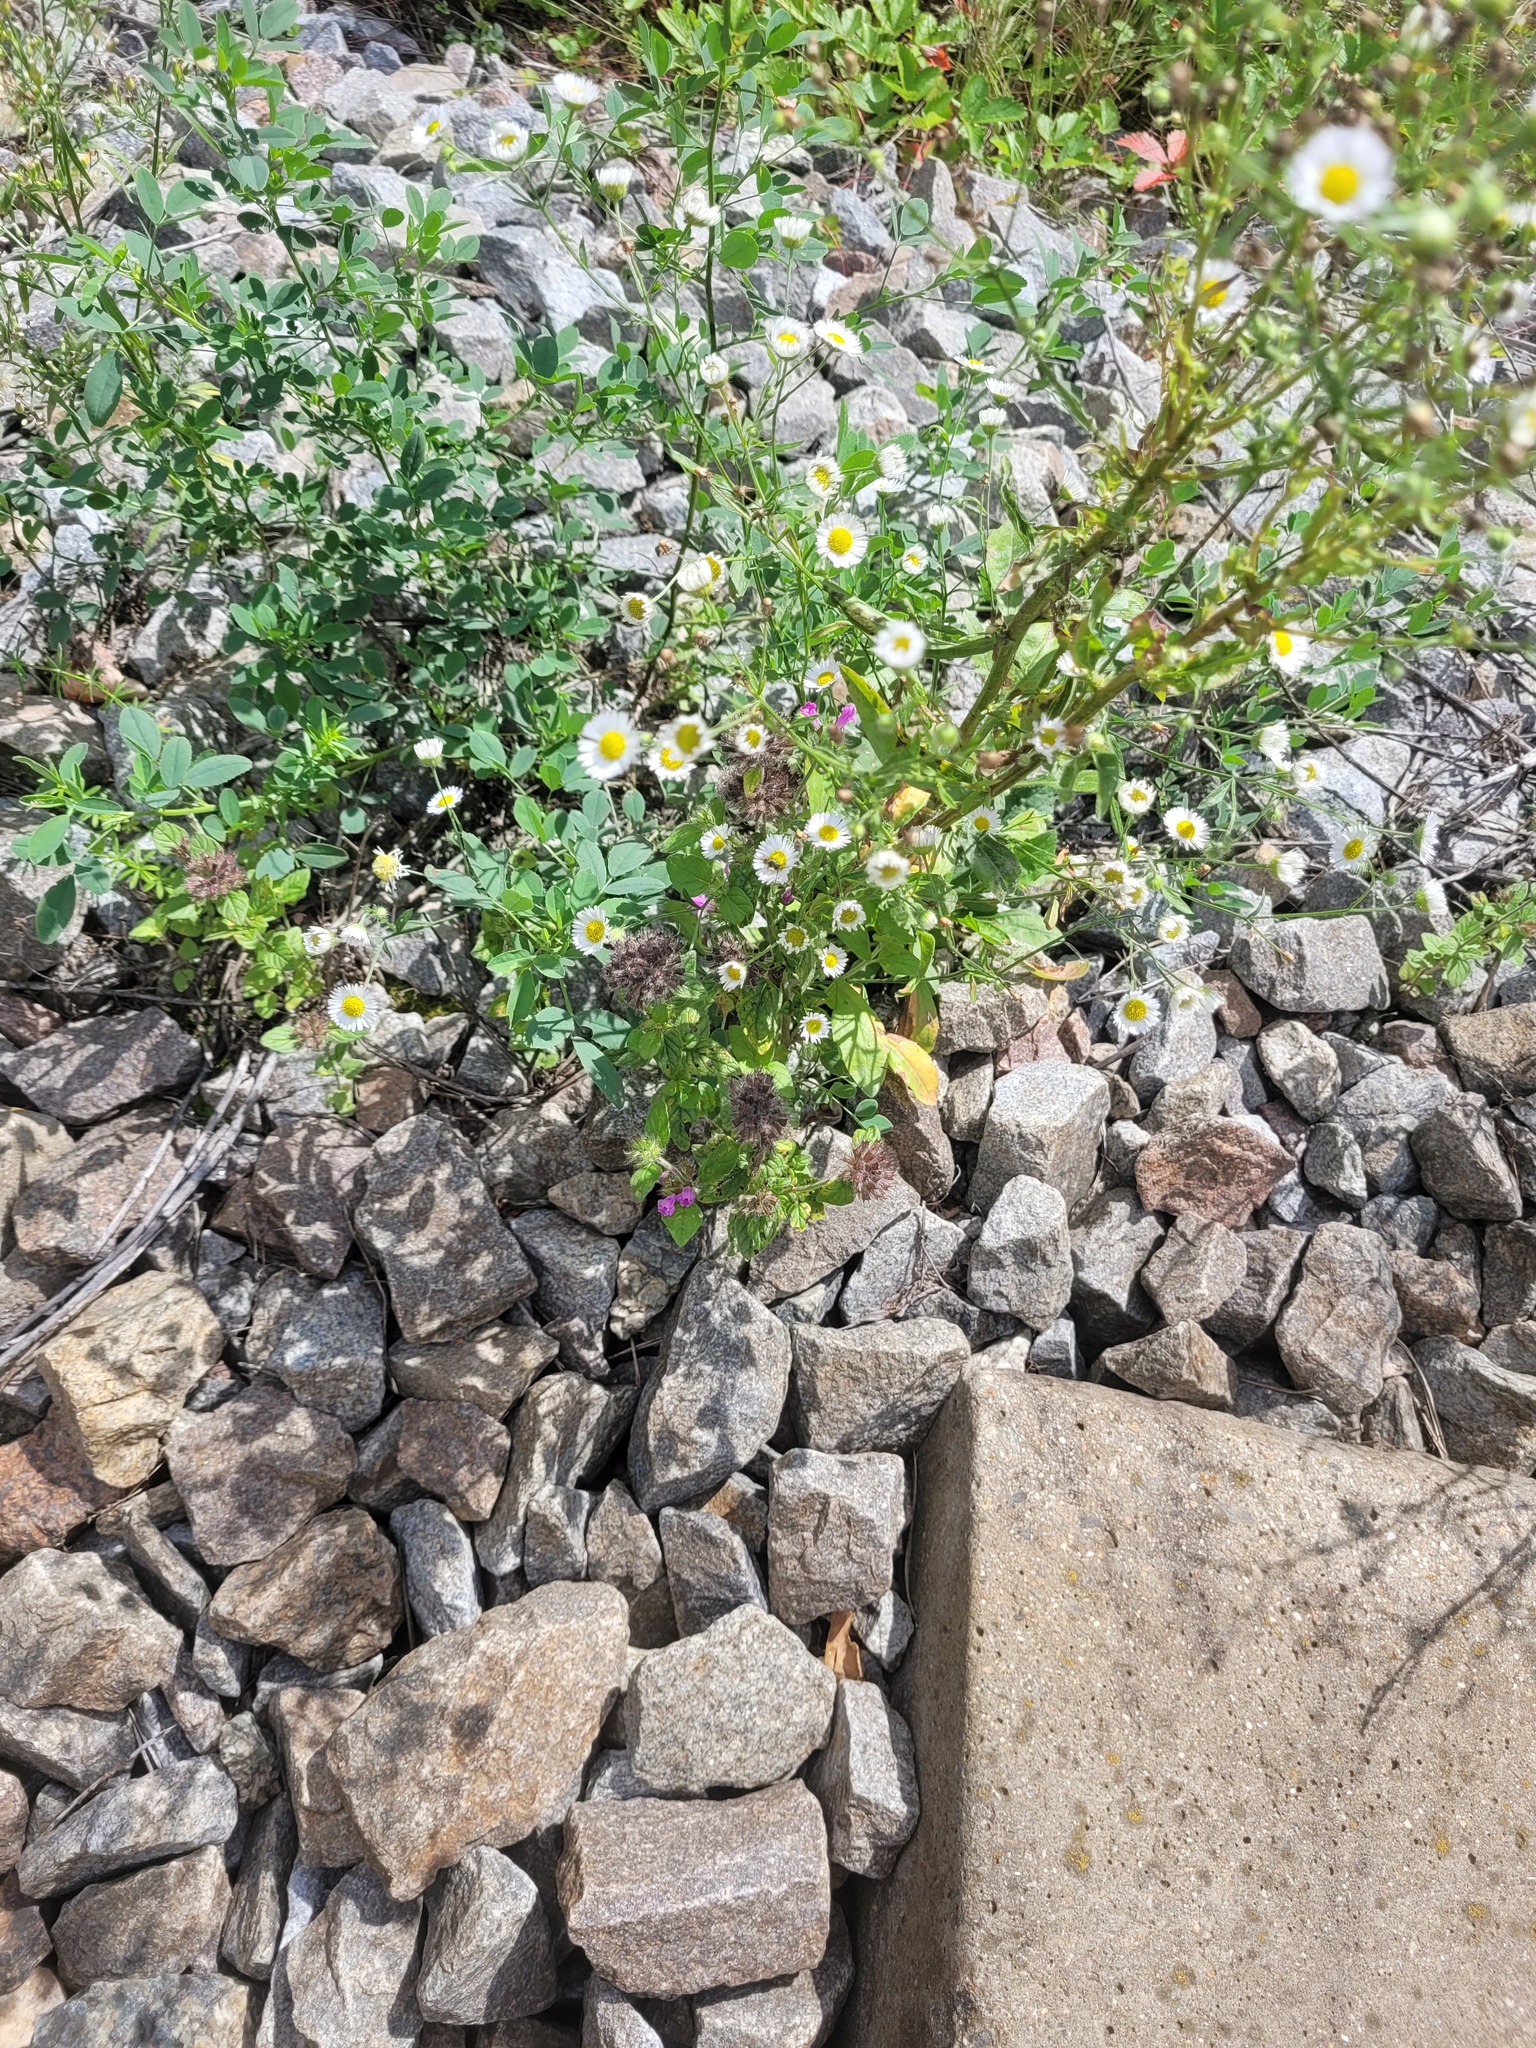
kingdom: Plantae
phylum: Tracheophyta
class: Magnoliopsida
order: Asterales
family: Asteraceae
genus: Erigeron
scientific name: Erigeron annuus
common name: Tall fleabane
